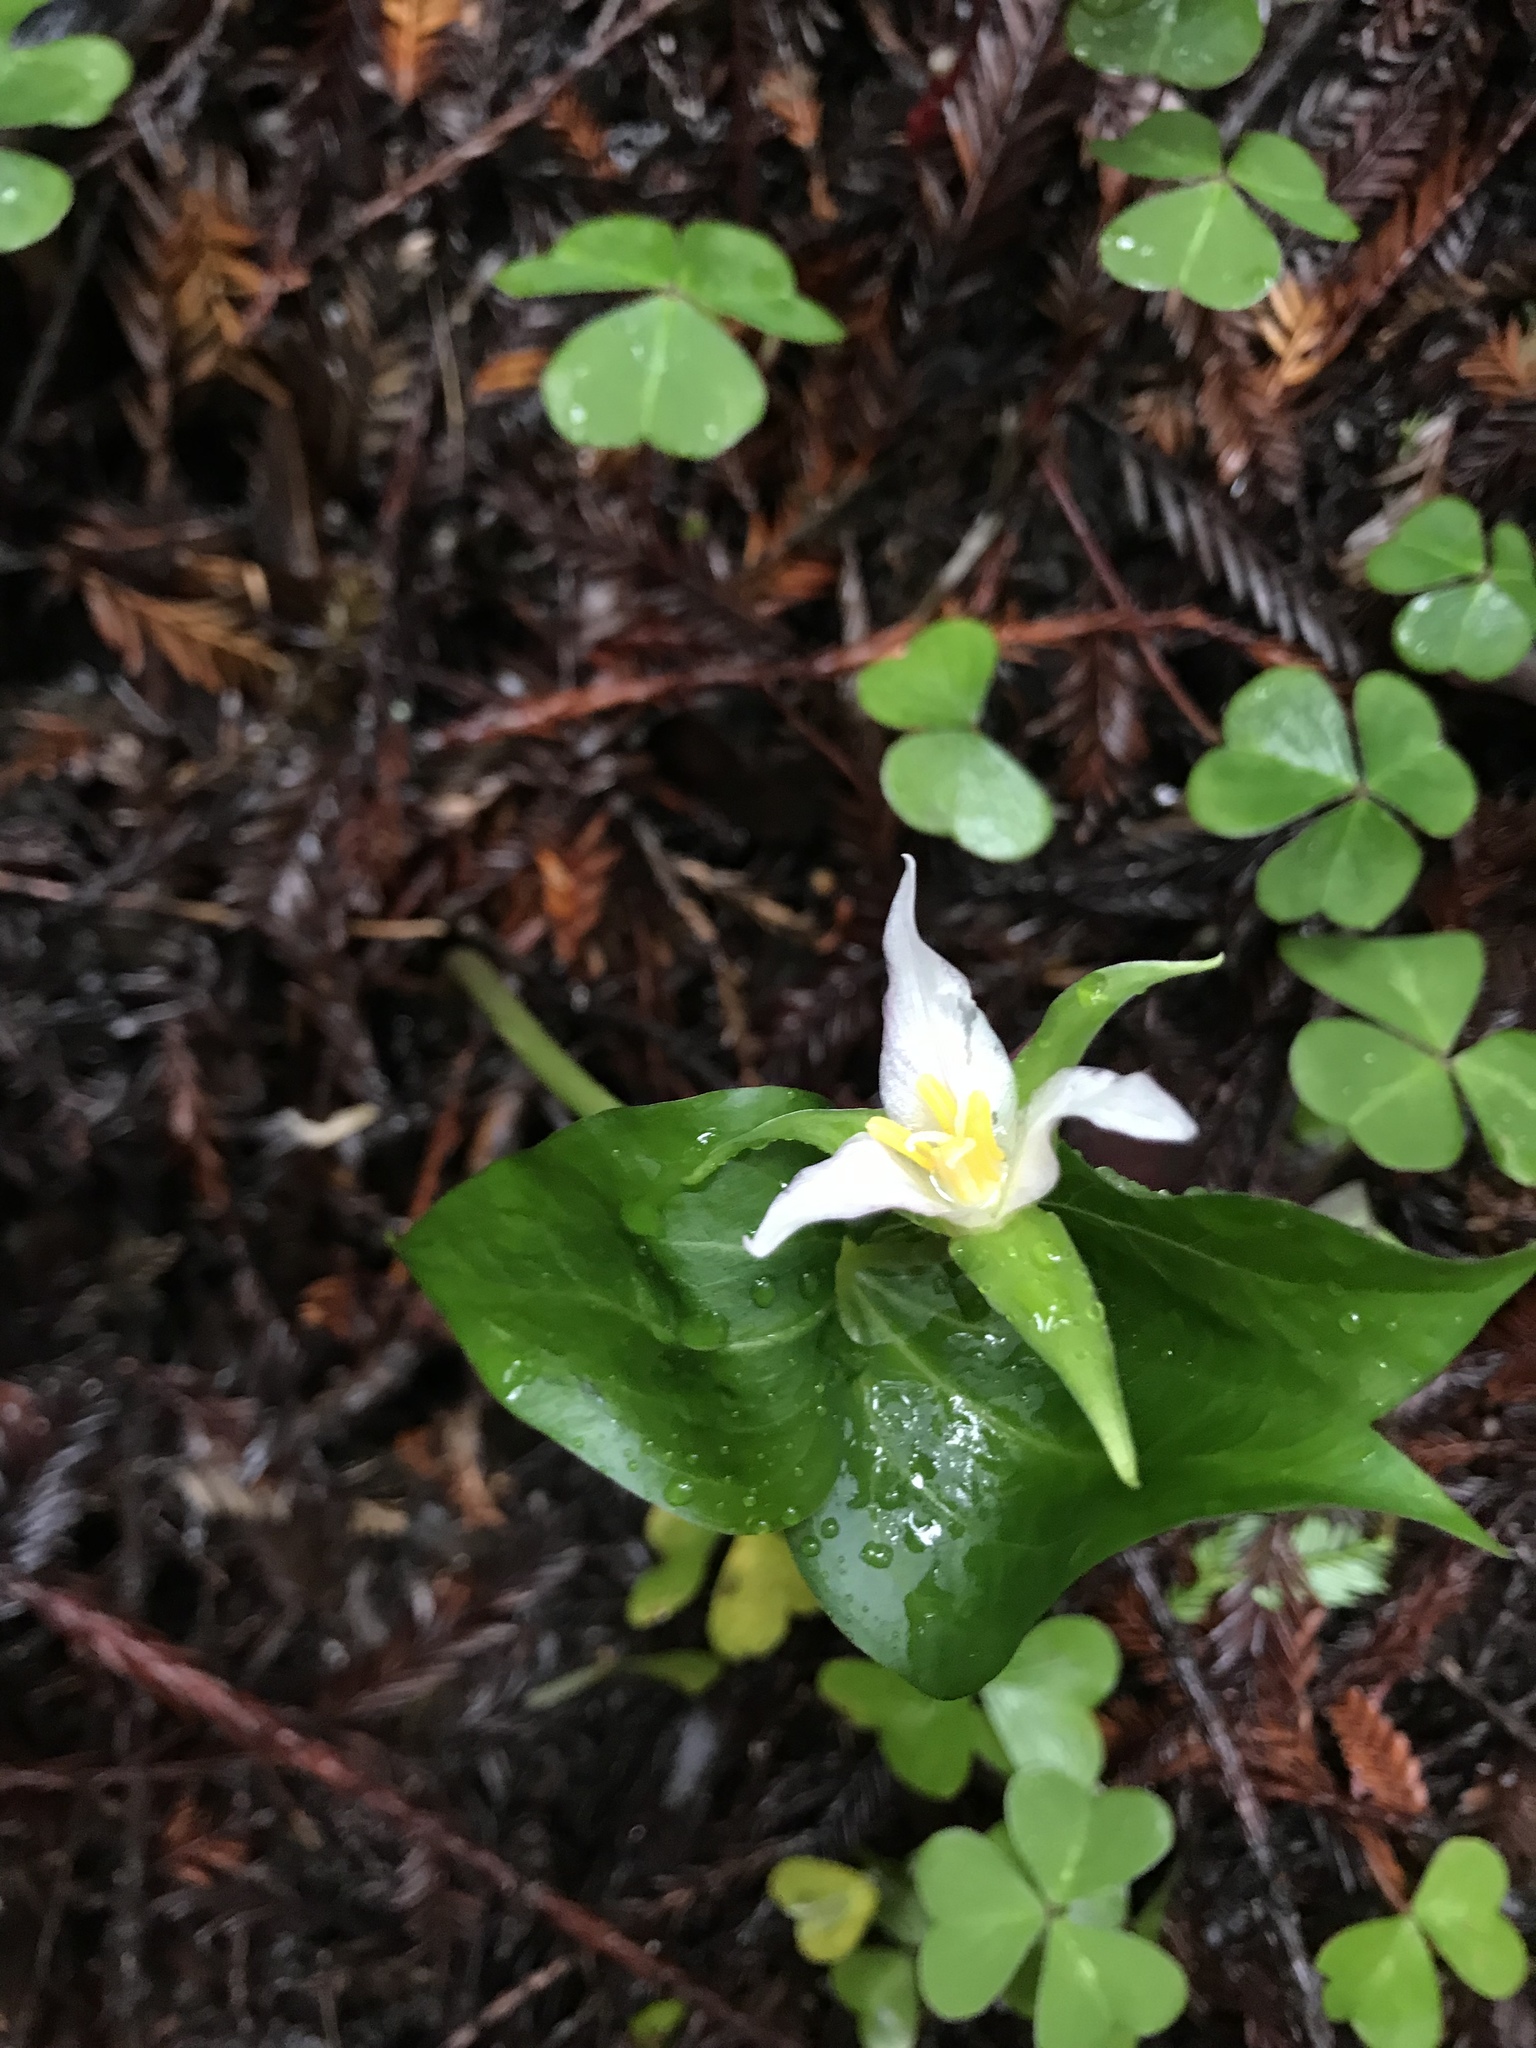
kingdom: Plantae
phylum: Tracheophyta
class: Liliopsida
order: Liliales
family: Melanthiaceae
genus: Trillium
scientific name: Trillium ovatum
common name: Pacific trillium
